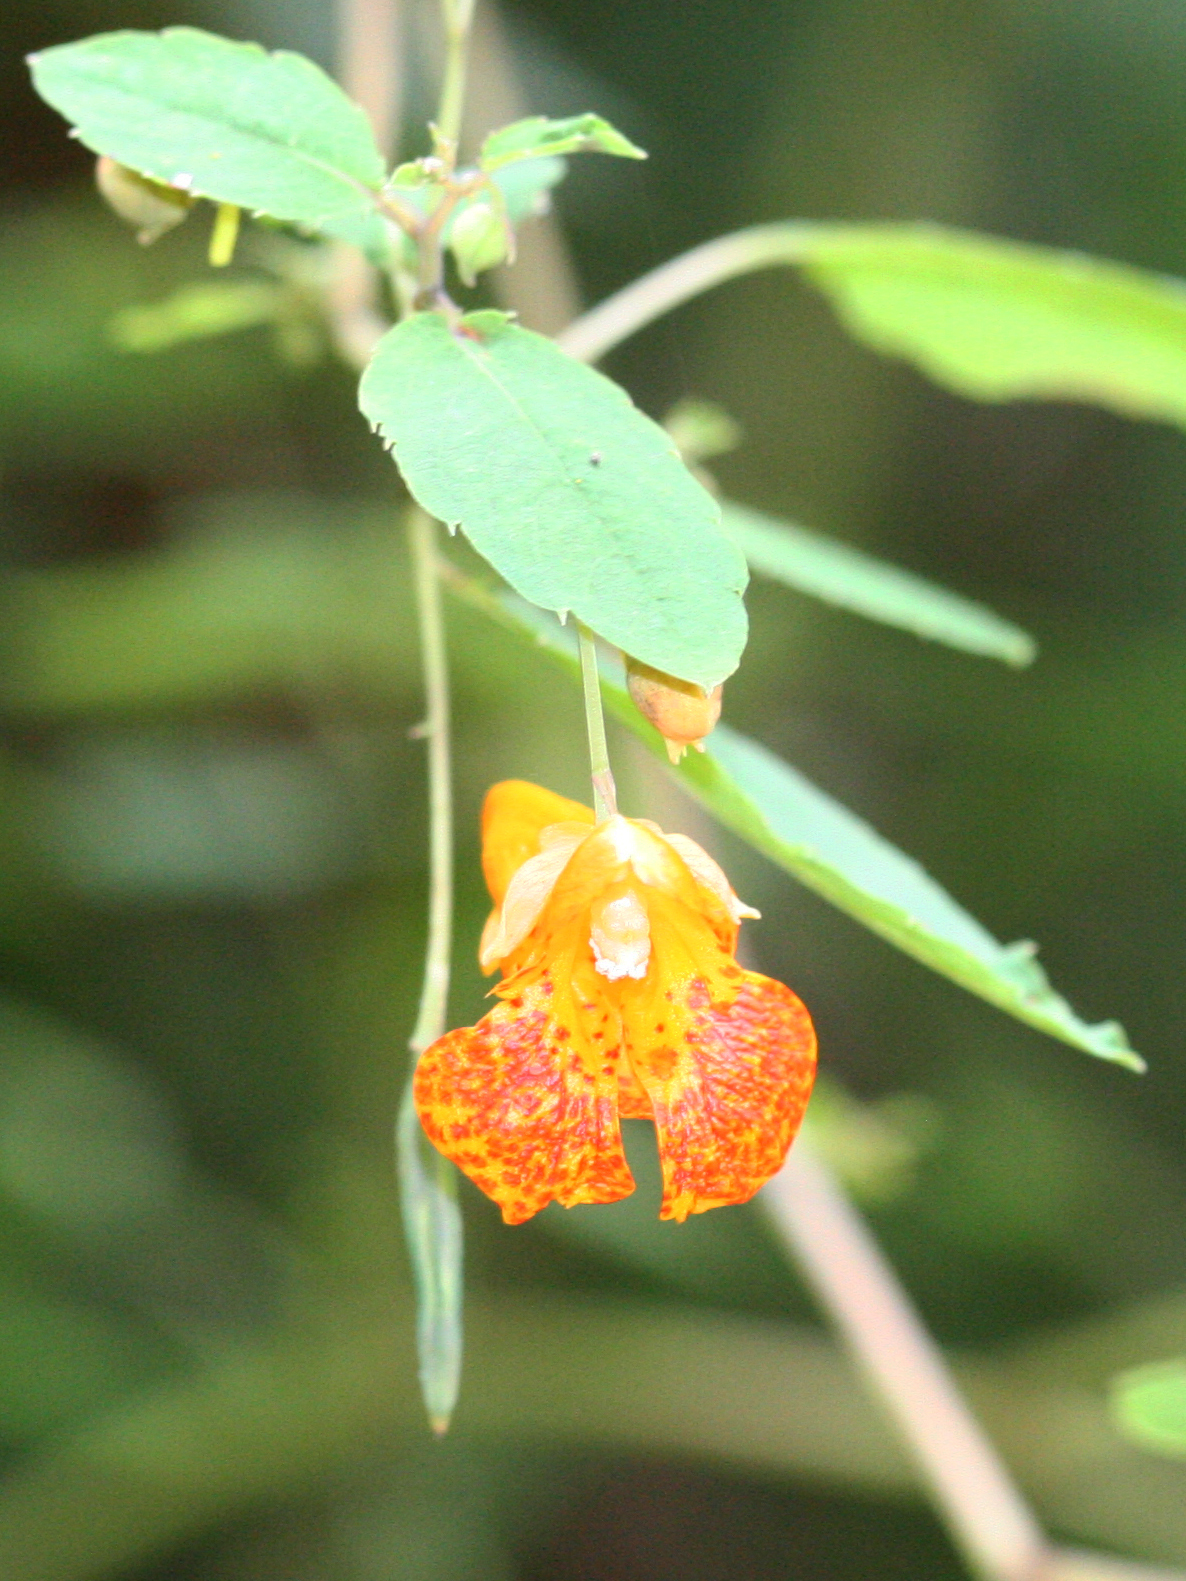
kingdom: Plantae
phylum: Tracheophyta
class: Magnoliopsida
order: Ericales
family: Balsaminaceae
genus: Impatiens
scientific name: Impatiens capensis
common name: Orange balsam
